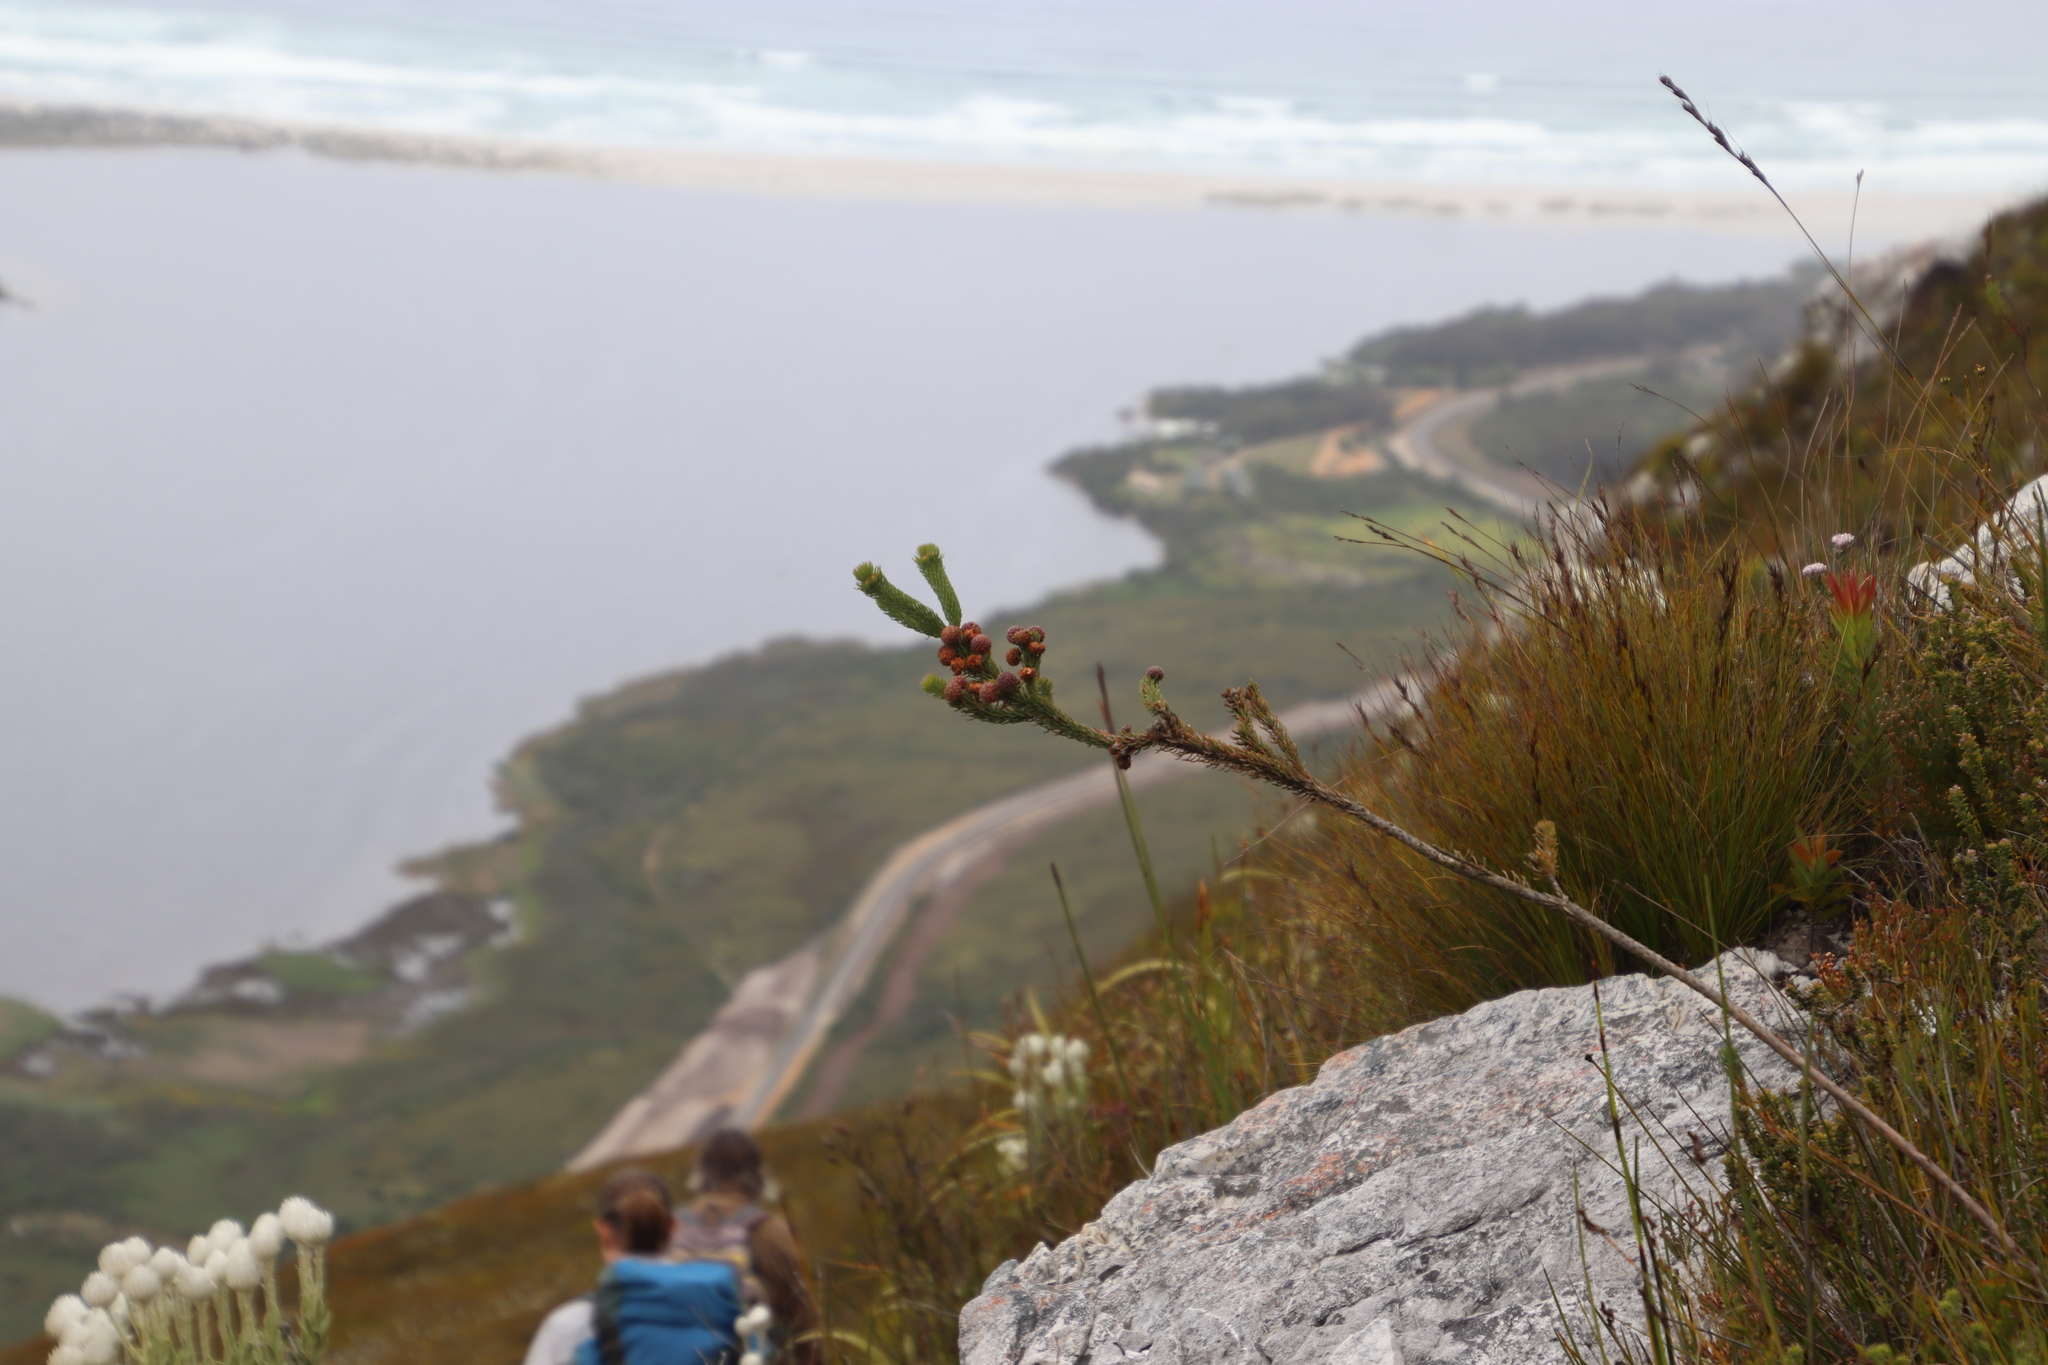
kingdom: Plantae
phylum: Tracheophyta
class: Magnoliopsida
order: Bruniales
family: Bruniaceae
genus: Berzelia
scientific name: Berzelia incurva
